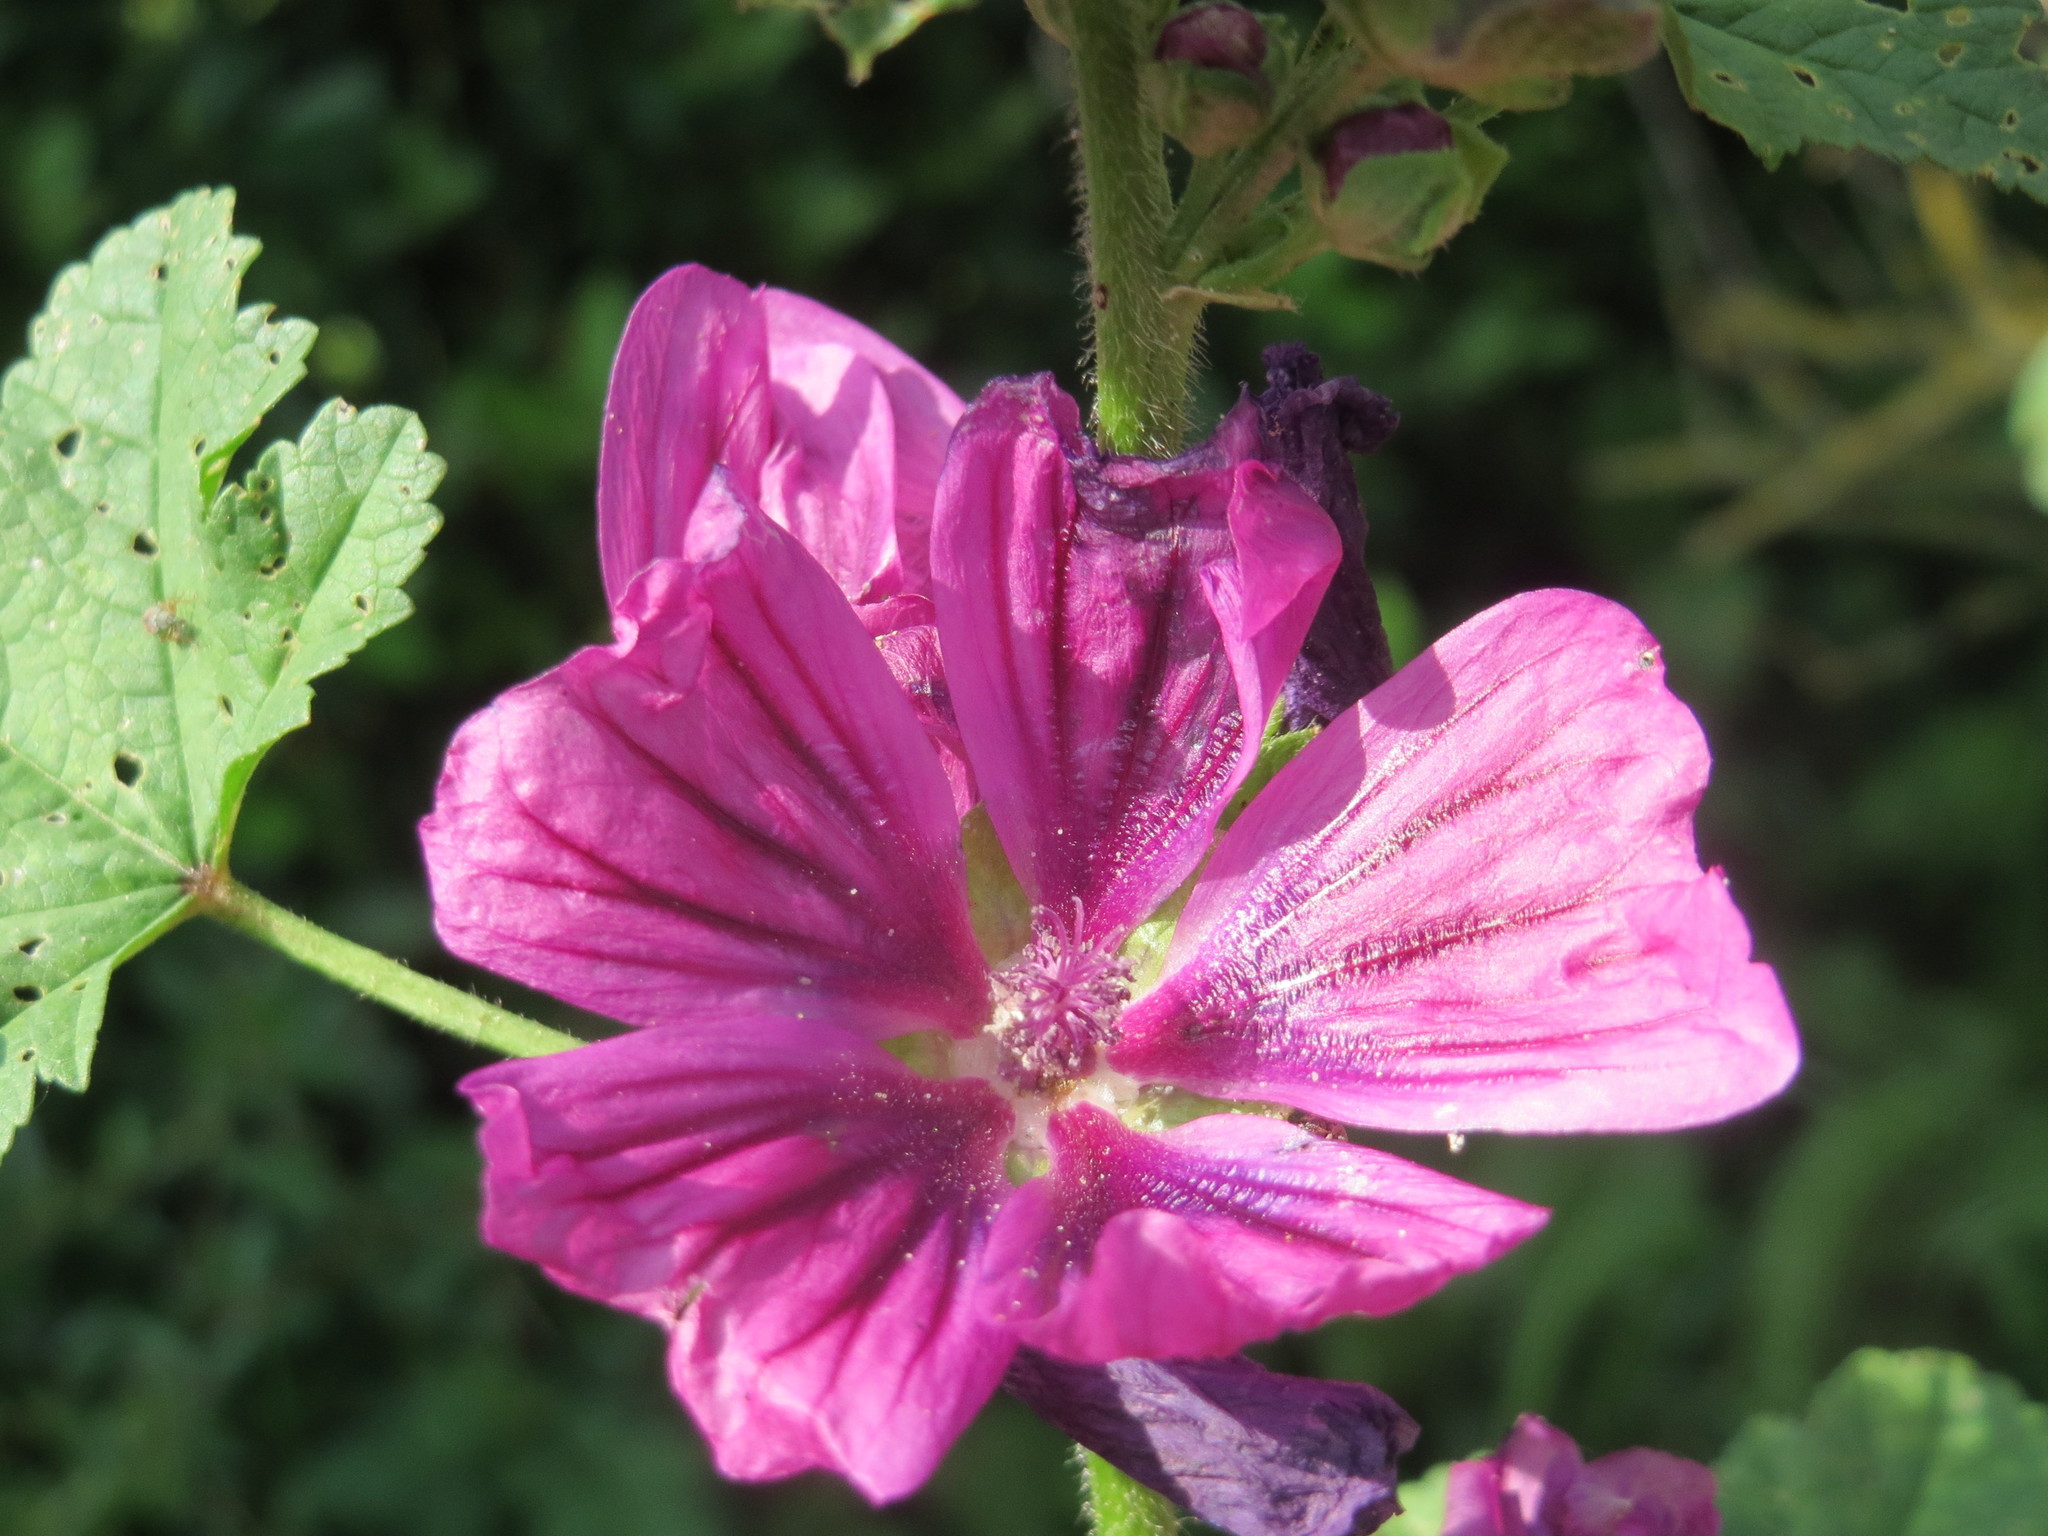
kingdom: Plantae
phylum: Tracheophyta
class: Magnoliopsida
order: Malvales
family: Malvaceae
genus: Malva
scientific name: Malva sylvestris
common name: Common mallow
